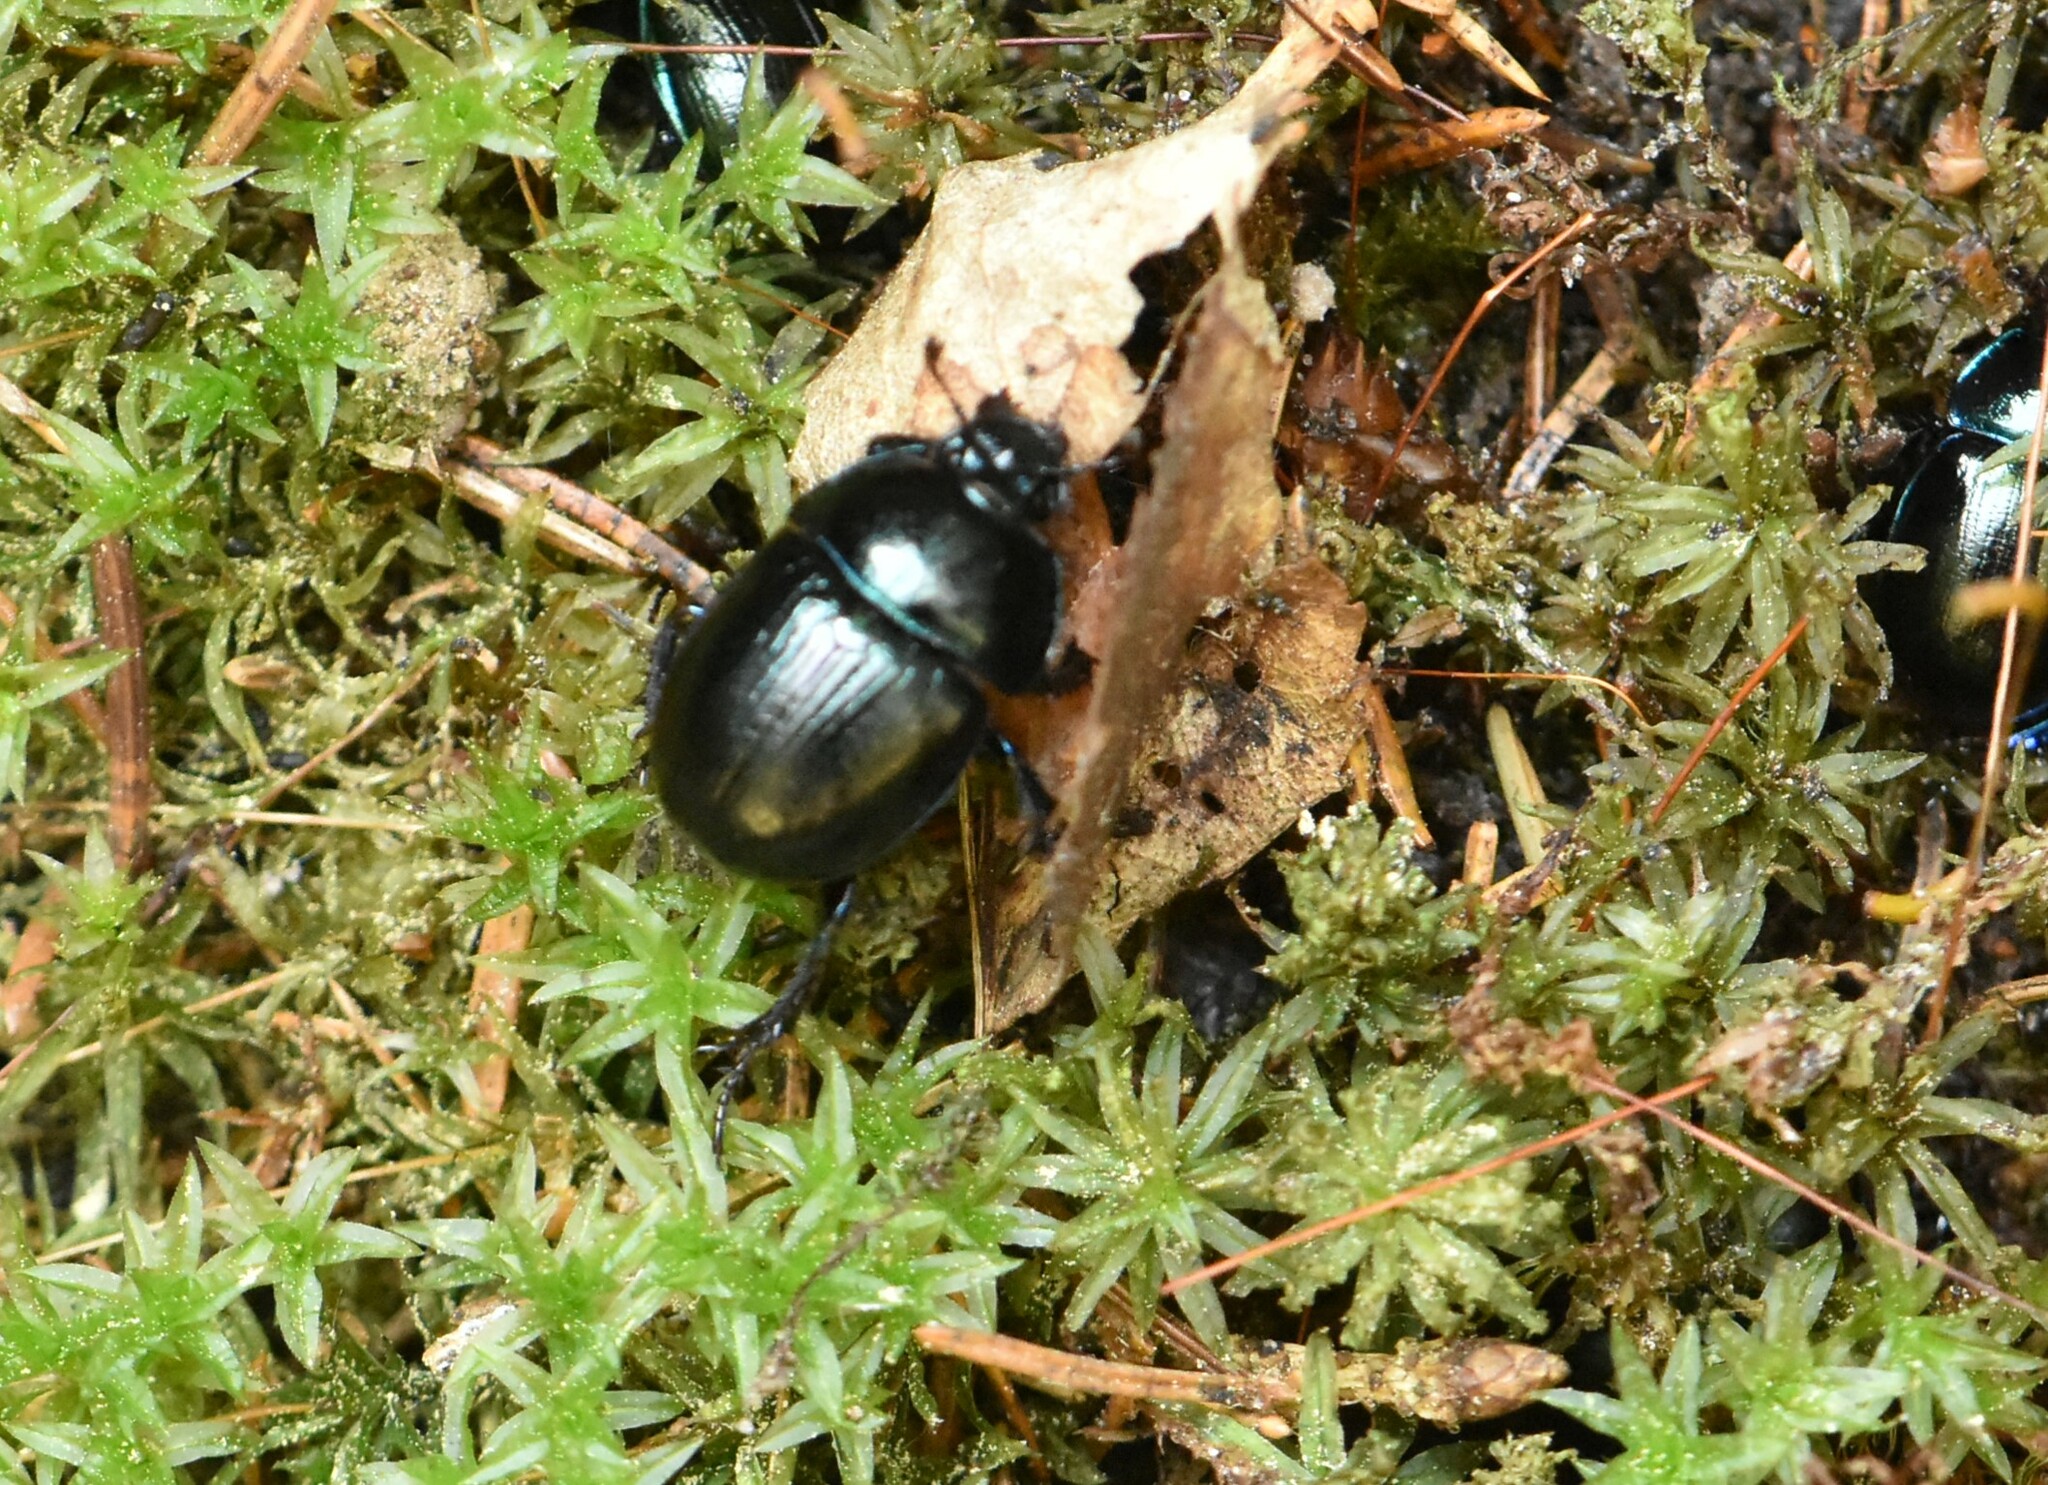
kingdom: Animalia
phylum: Arthropoda
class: Insecta
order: Coleoptera
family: Geotrupidae
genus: Anoplotrupes
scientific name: Anoplotrupes stercorosus
